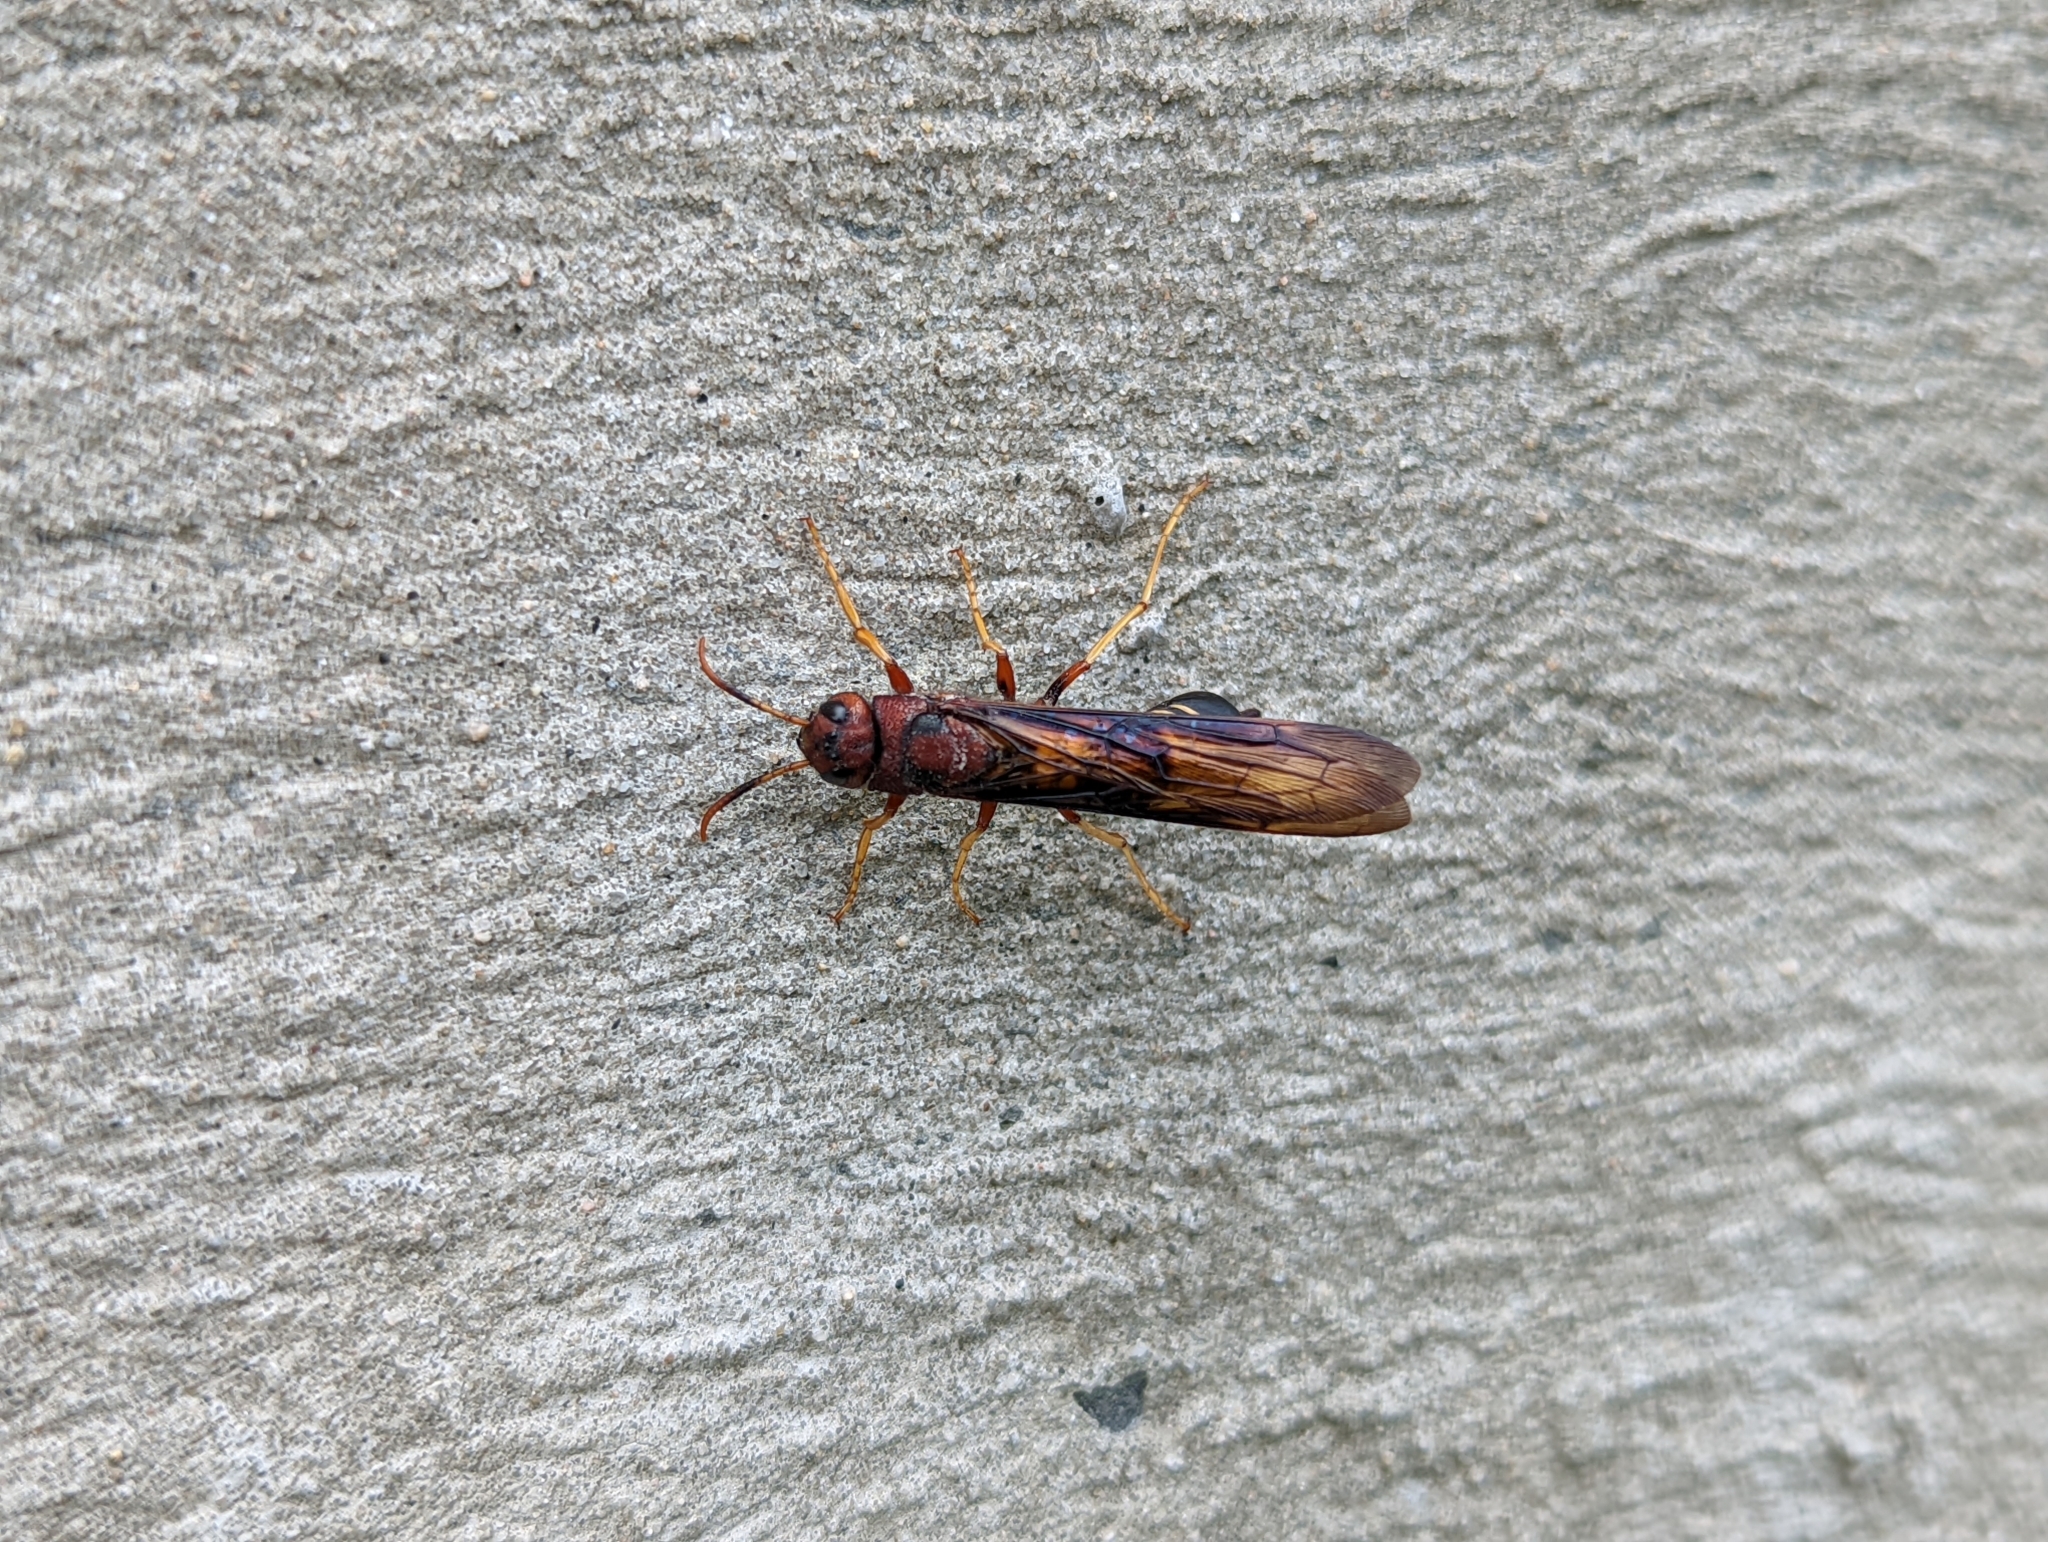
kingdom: Animalia
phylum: Arthropoda
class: Insecta
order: Hymenoptera
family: Siricidae
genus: Tremex
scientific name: Tremex columba
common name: Wasp
